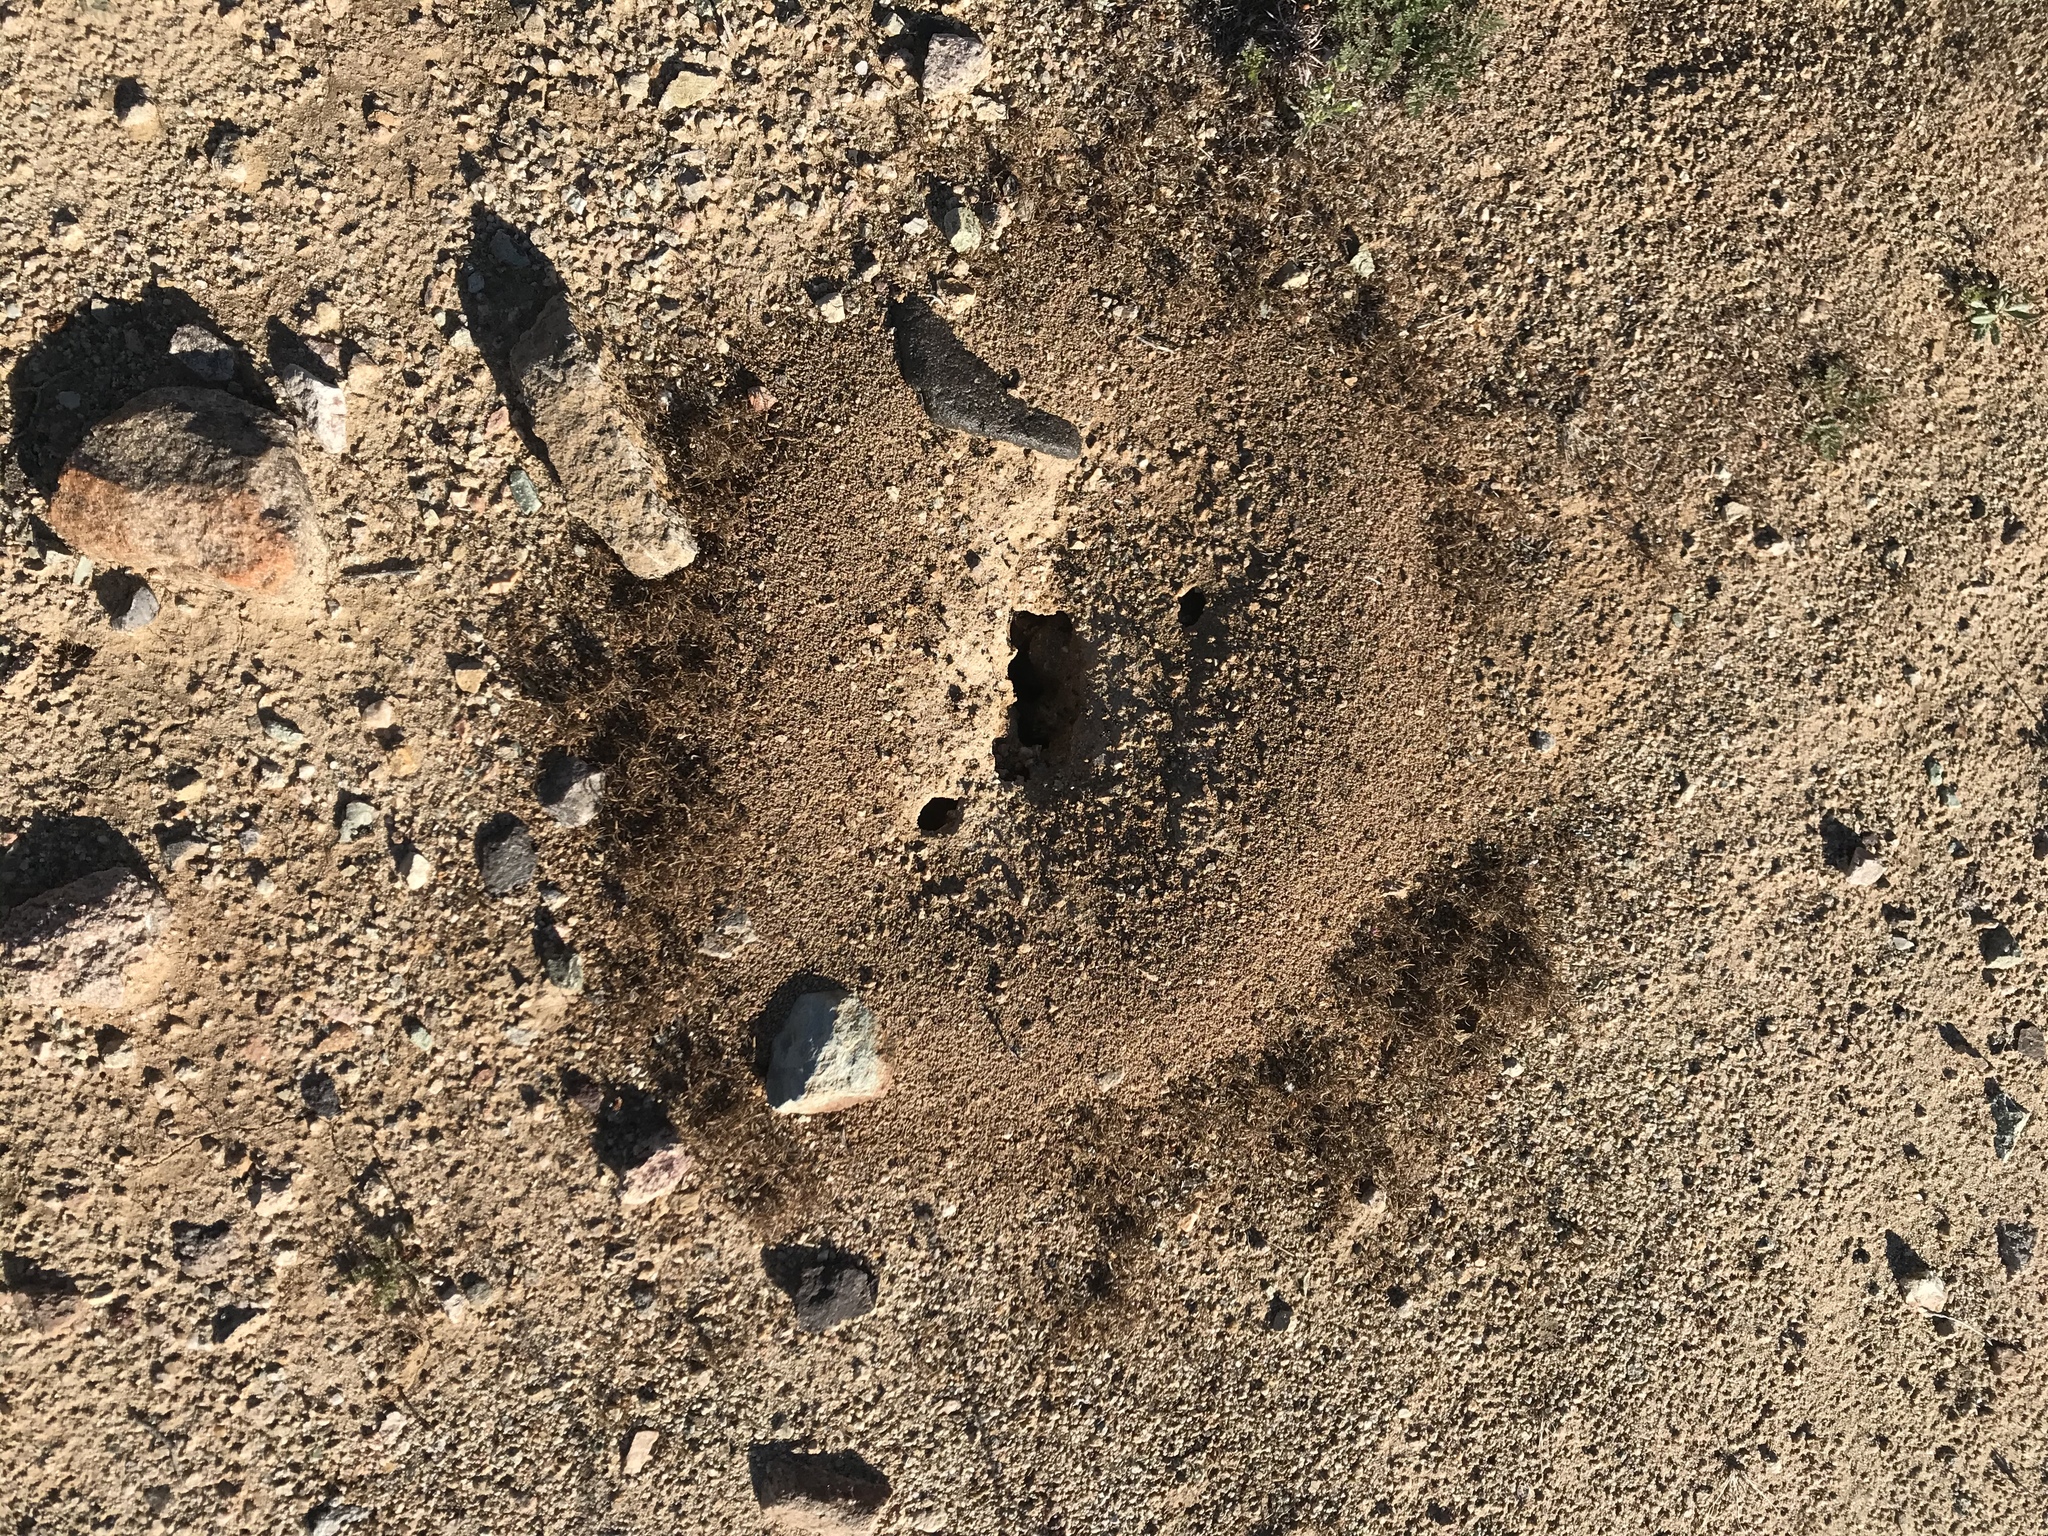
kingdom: Animalia
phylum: Arthropoda
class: Insecta
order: Hymenoptera
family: Formicidae
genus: Messor
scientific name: Messor pergandei
